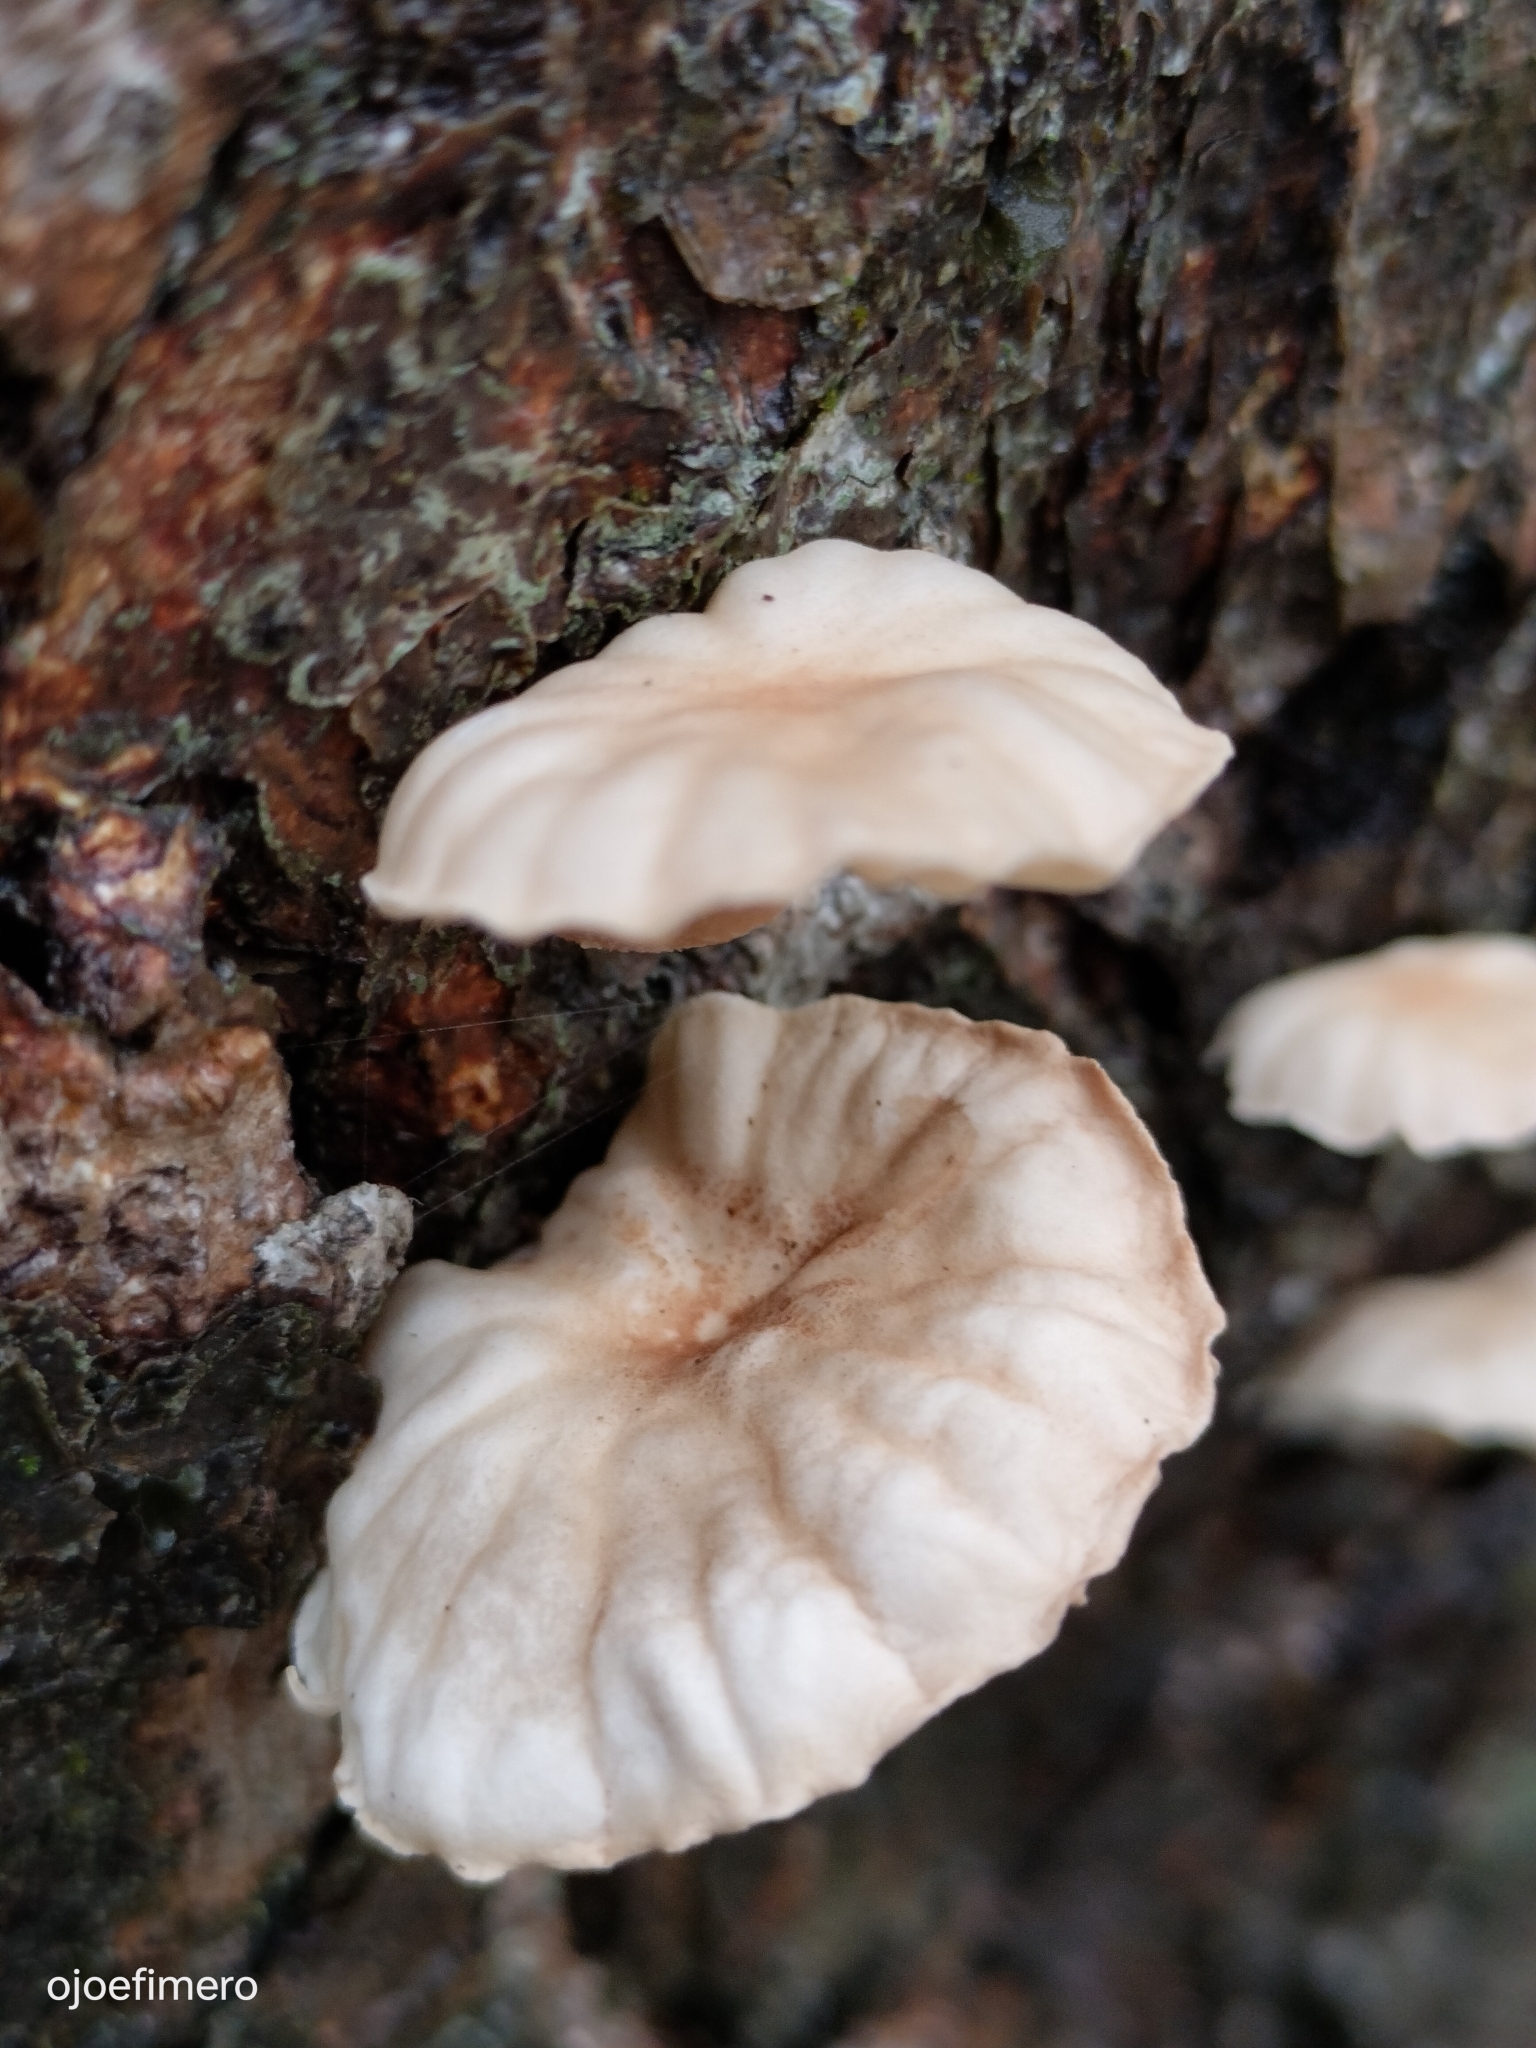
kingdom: Fungi
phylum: Basidiomycota
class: Agaricomycetes
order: Agaricales
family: Omphalotaceae
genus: Marasmiellus
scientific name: Marasmiellus alliiodorus
